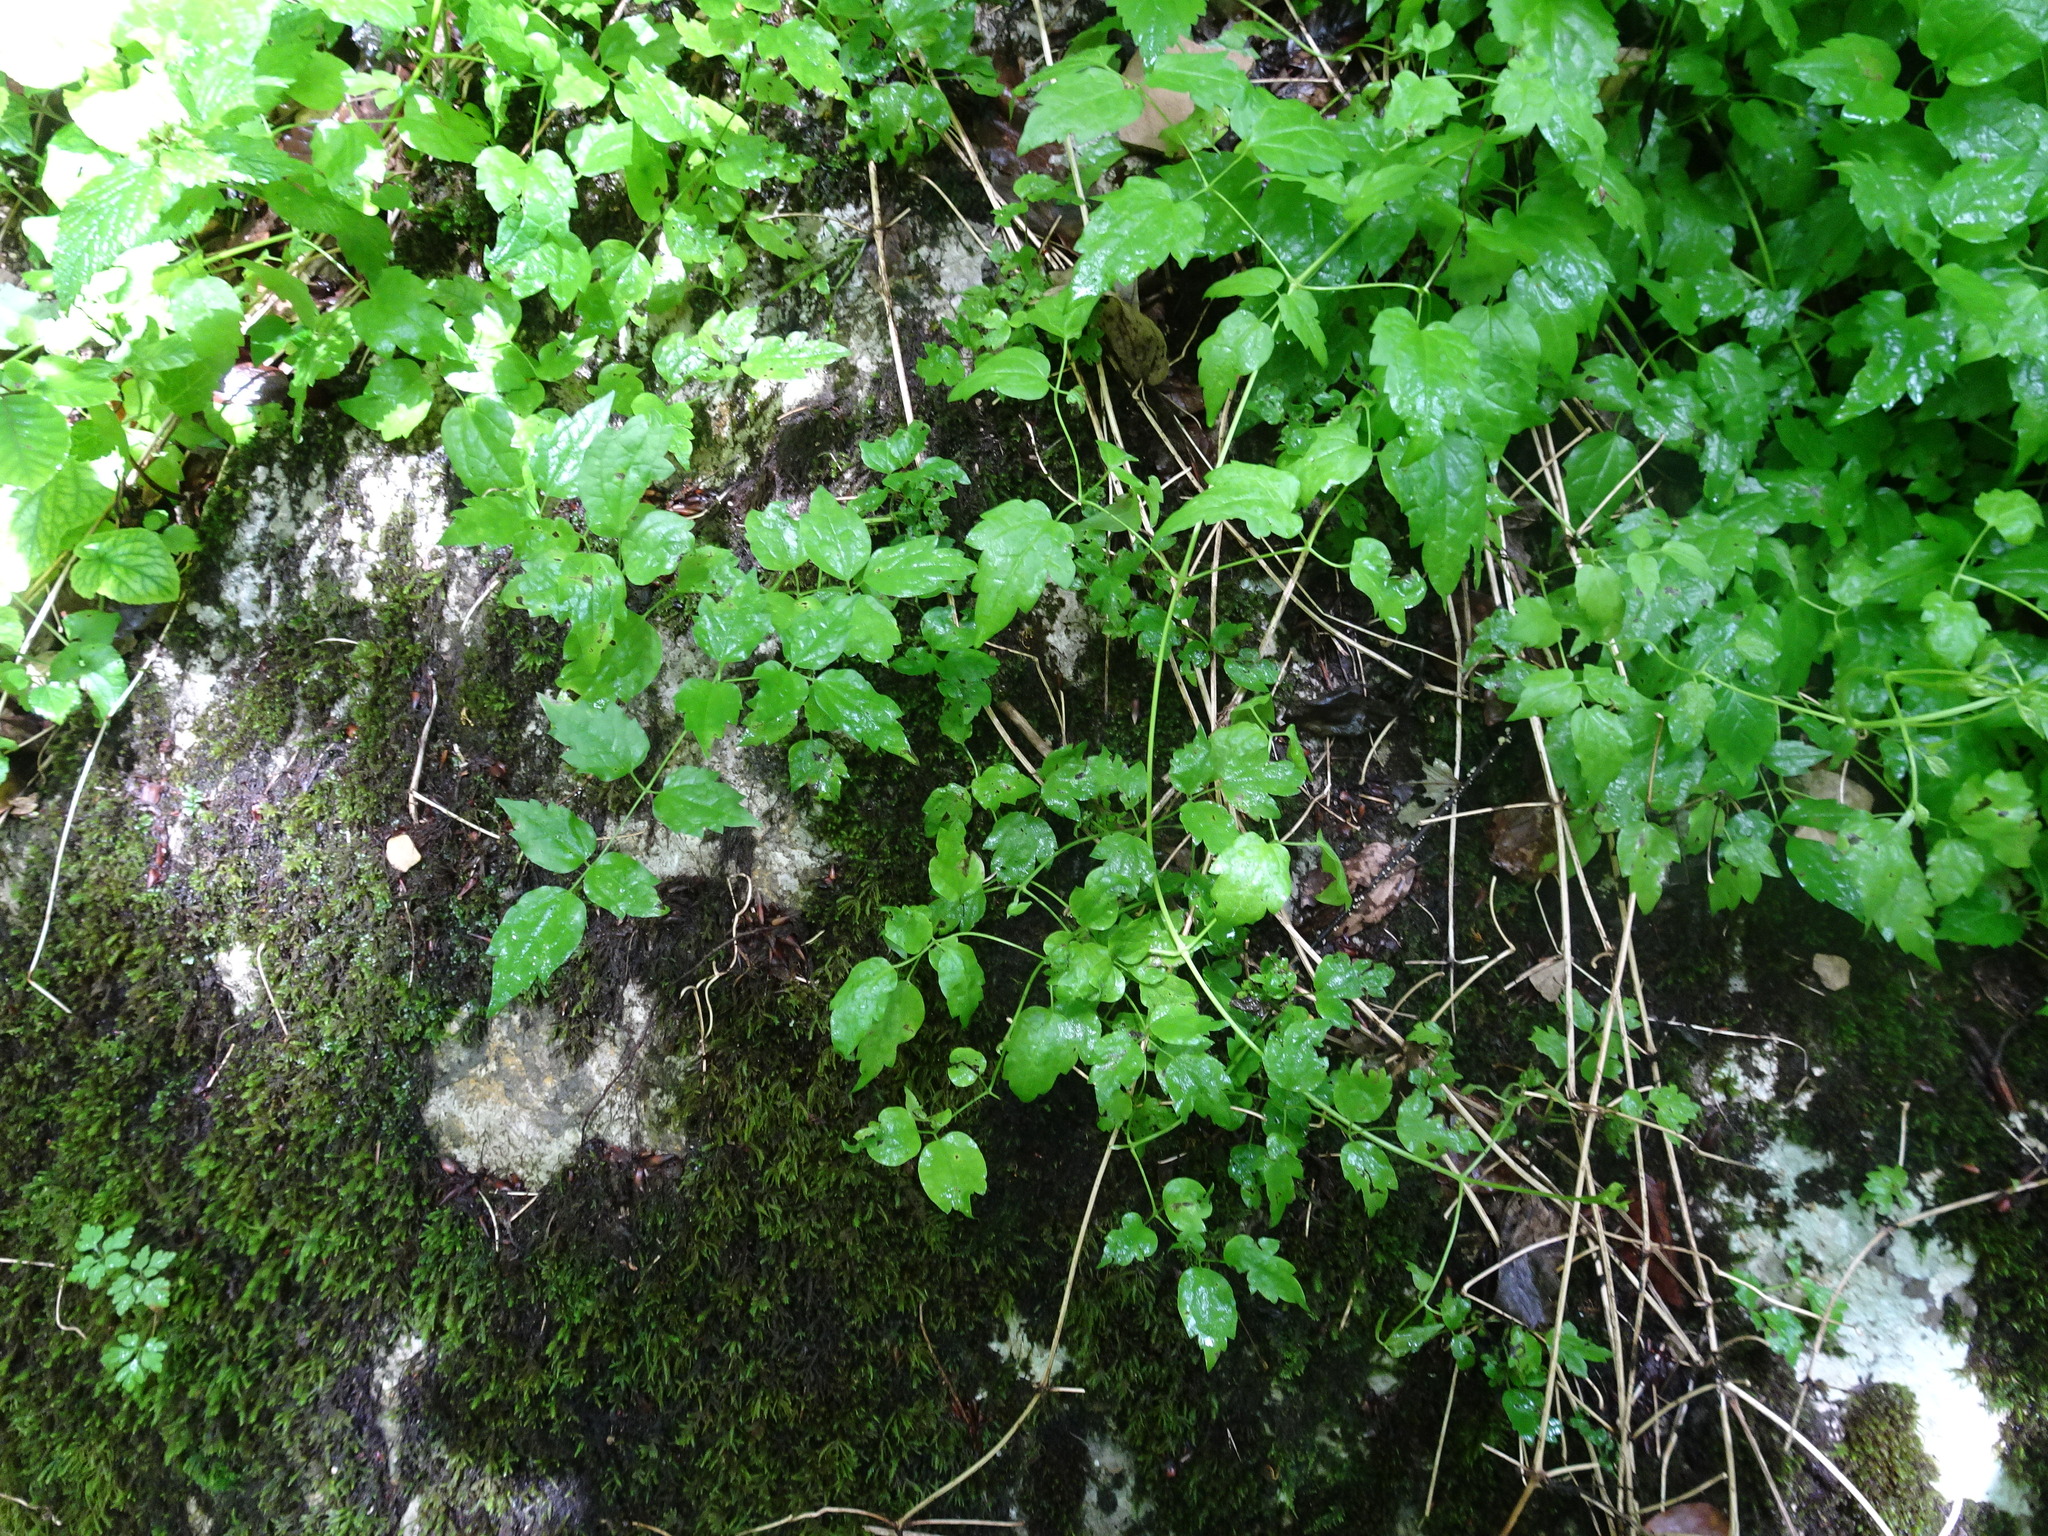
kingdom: Plantae
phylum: Tracheophyta
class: Magnoliopsida
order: Ranunculales
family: Ranunculaceae
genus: Clematis
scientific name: Clematis vitalba
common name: Evergreen clematis
